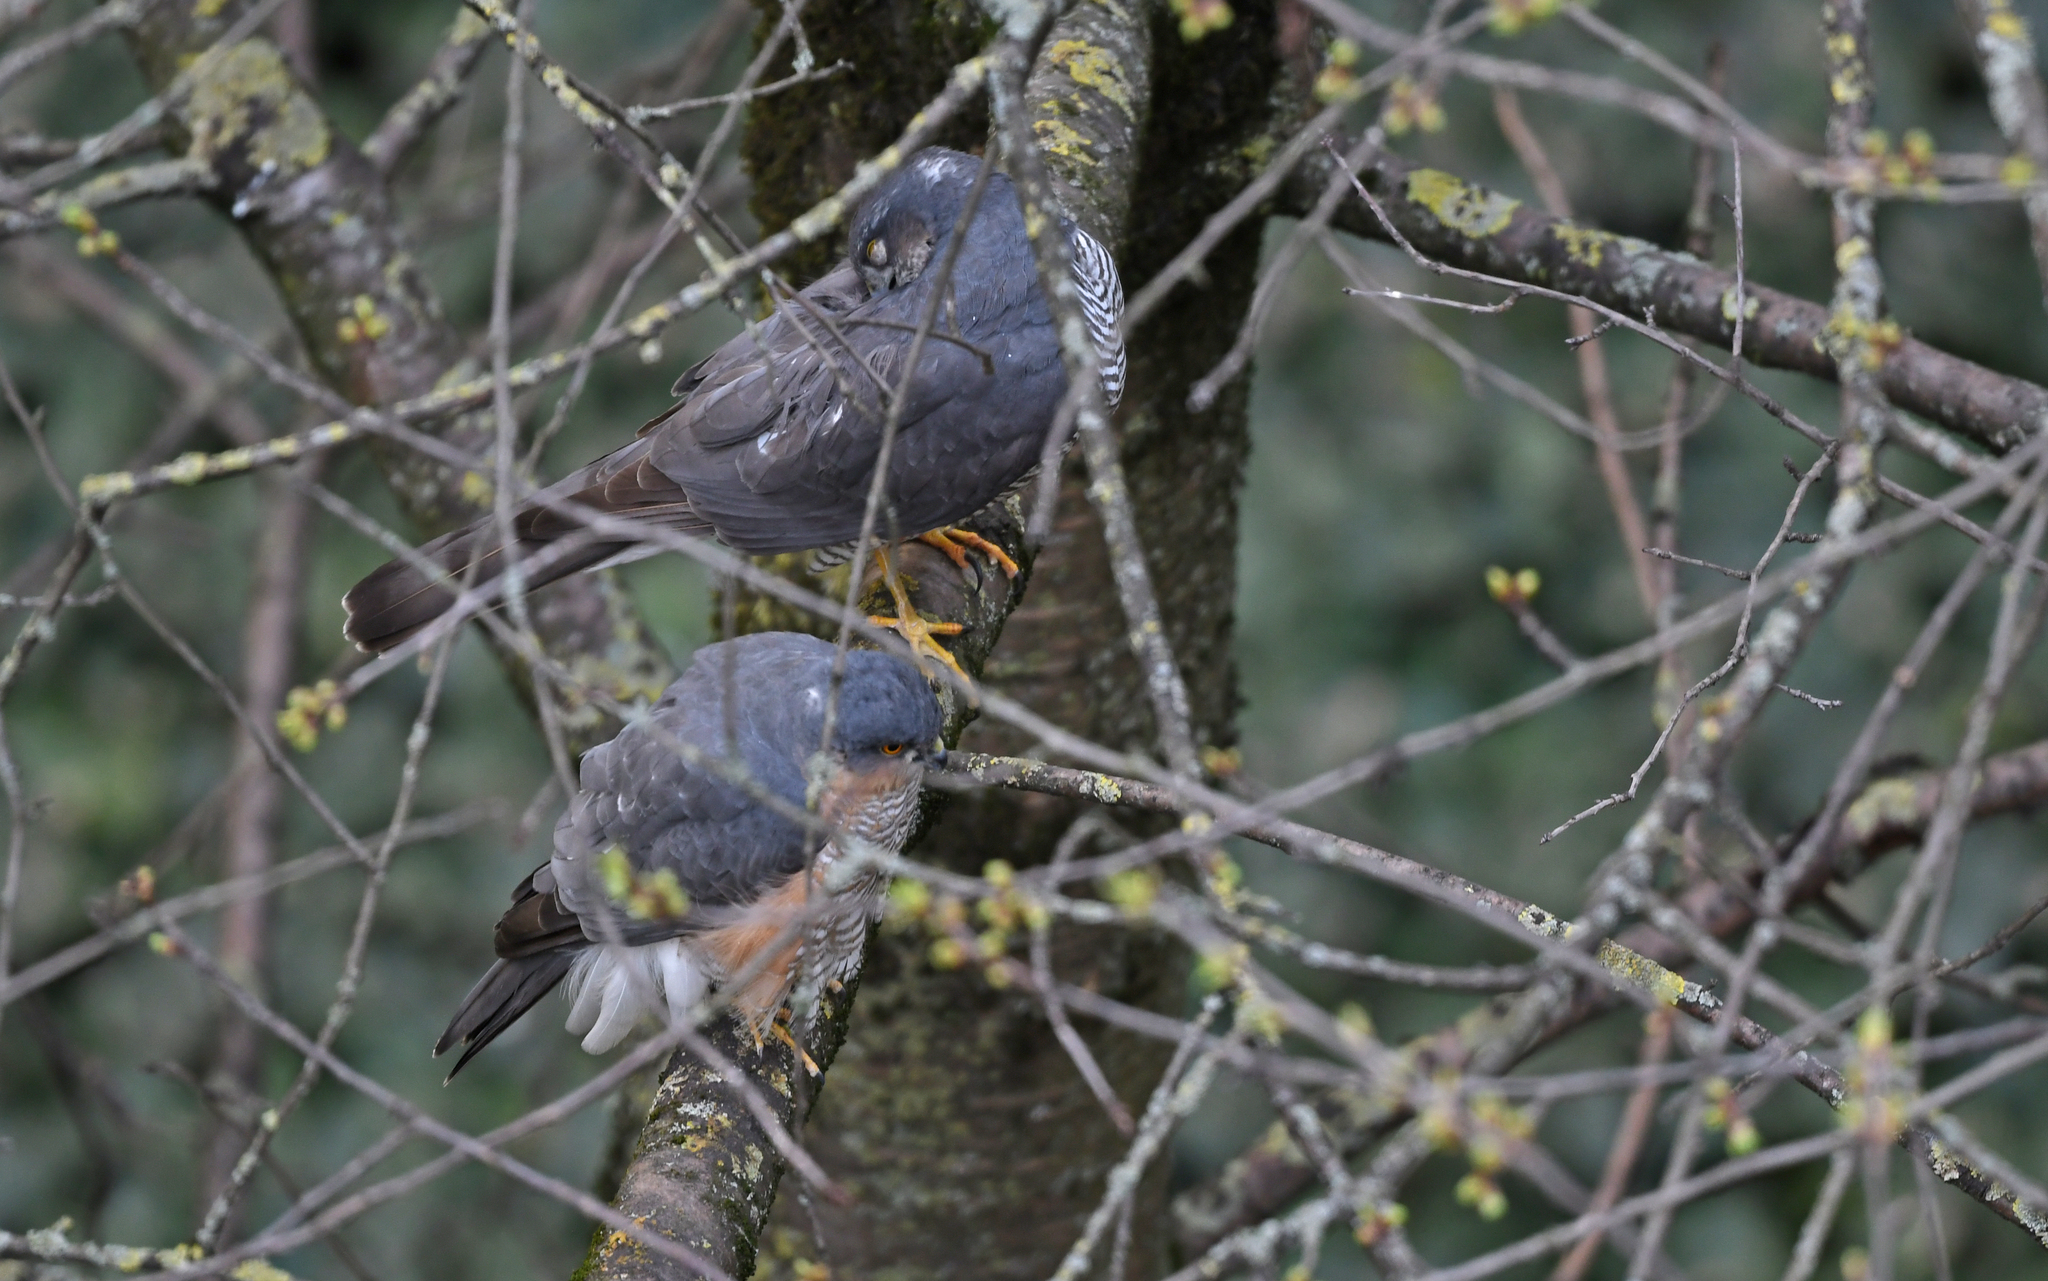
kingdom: Animalia
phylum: Chordata
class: Aves
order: Accipitriformes
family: Accipitridae
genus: Accipiter
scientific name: Accipiter nisus
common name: Eurasian sparrowhawk
